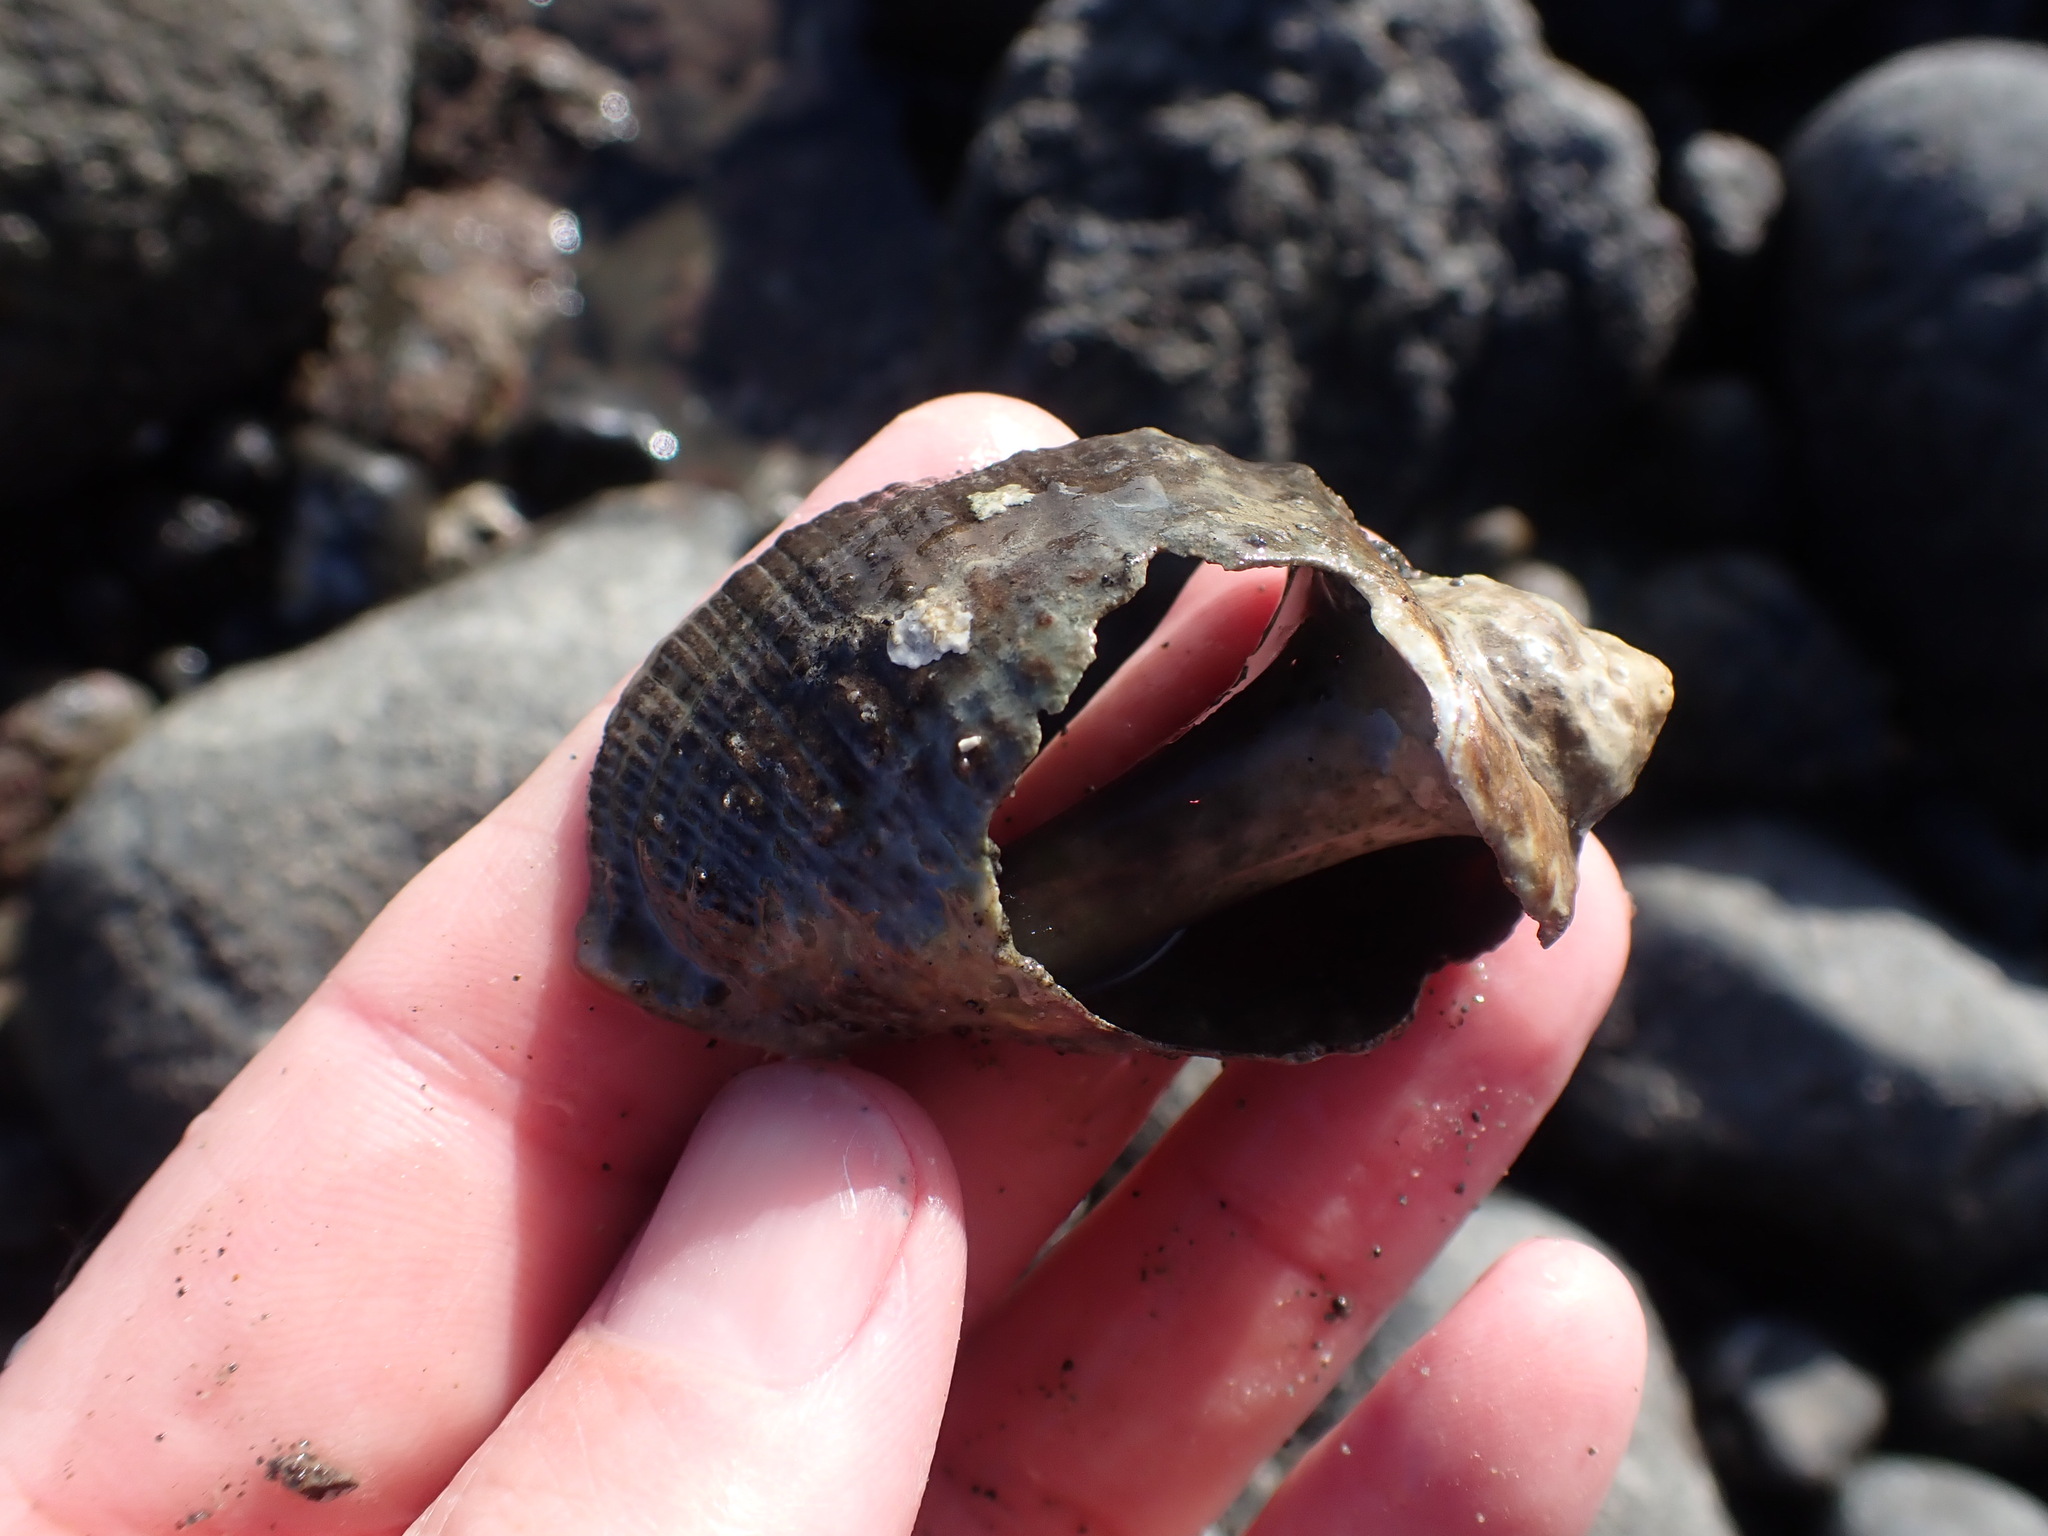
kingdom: Animalia
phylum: Mollusca
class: Gastropoda
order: Neogastropoda
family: Muricidae
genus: Haustrum
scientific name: Haustrum haustorium
